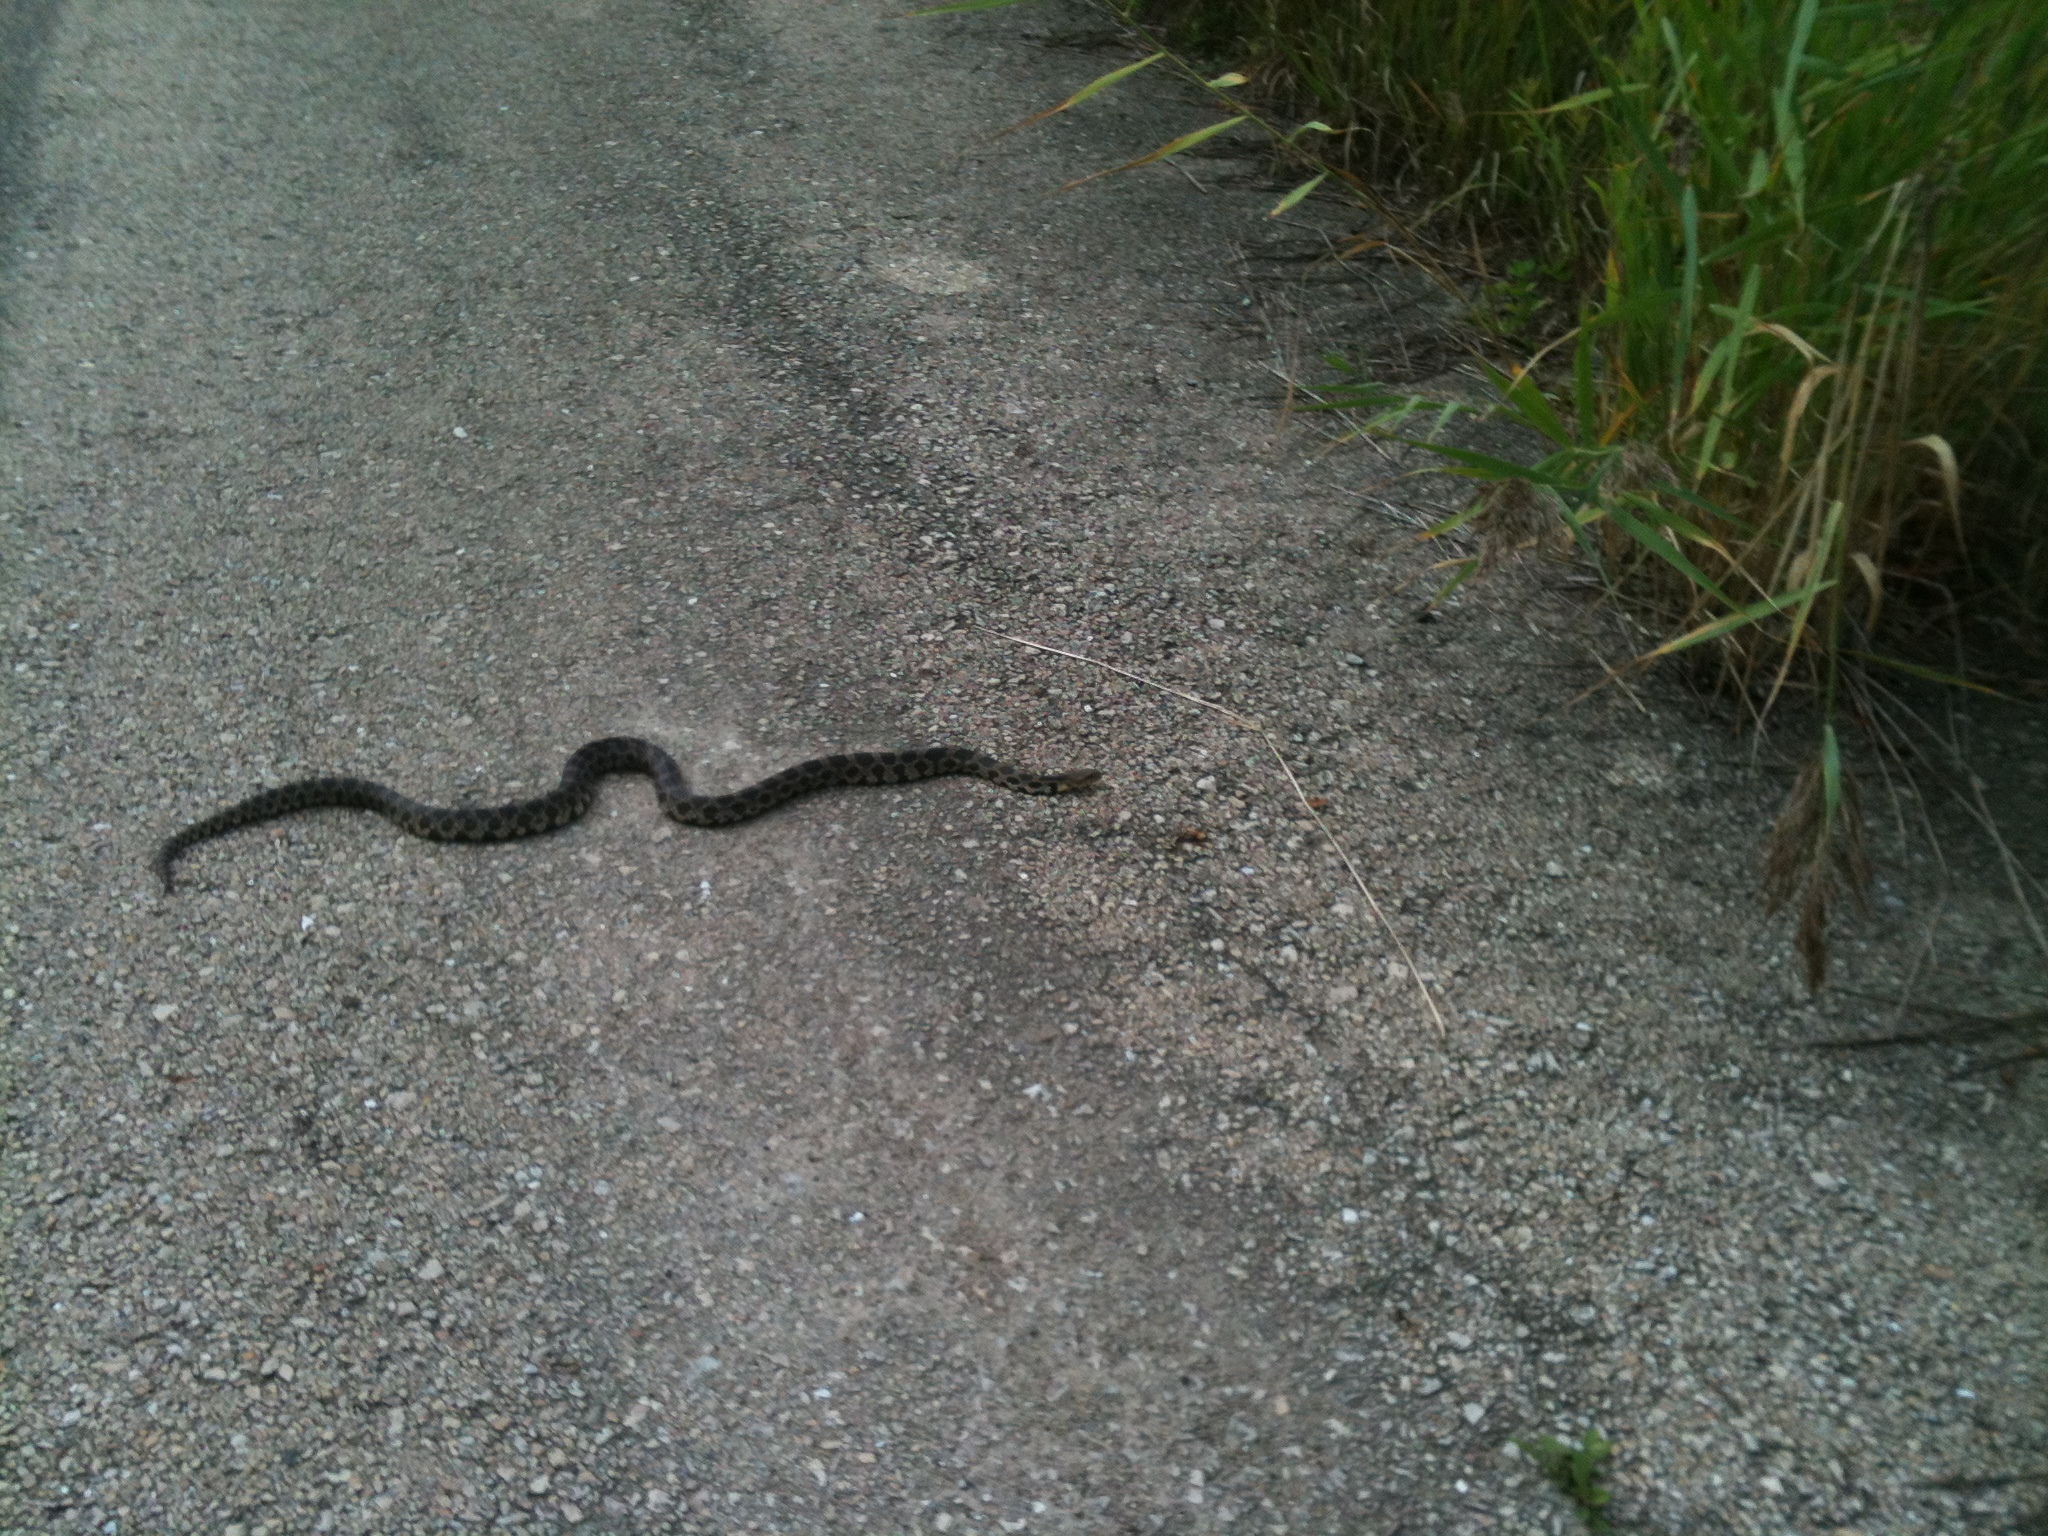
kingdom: Animalia
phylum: Chordata
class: Squamata
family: Colubridae
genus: Pantherophis
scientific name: Pantherophis vulpinus
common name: Eastern fox snake
